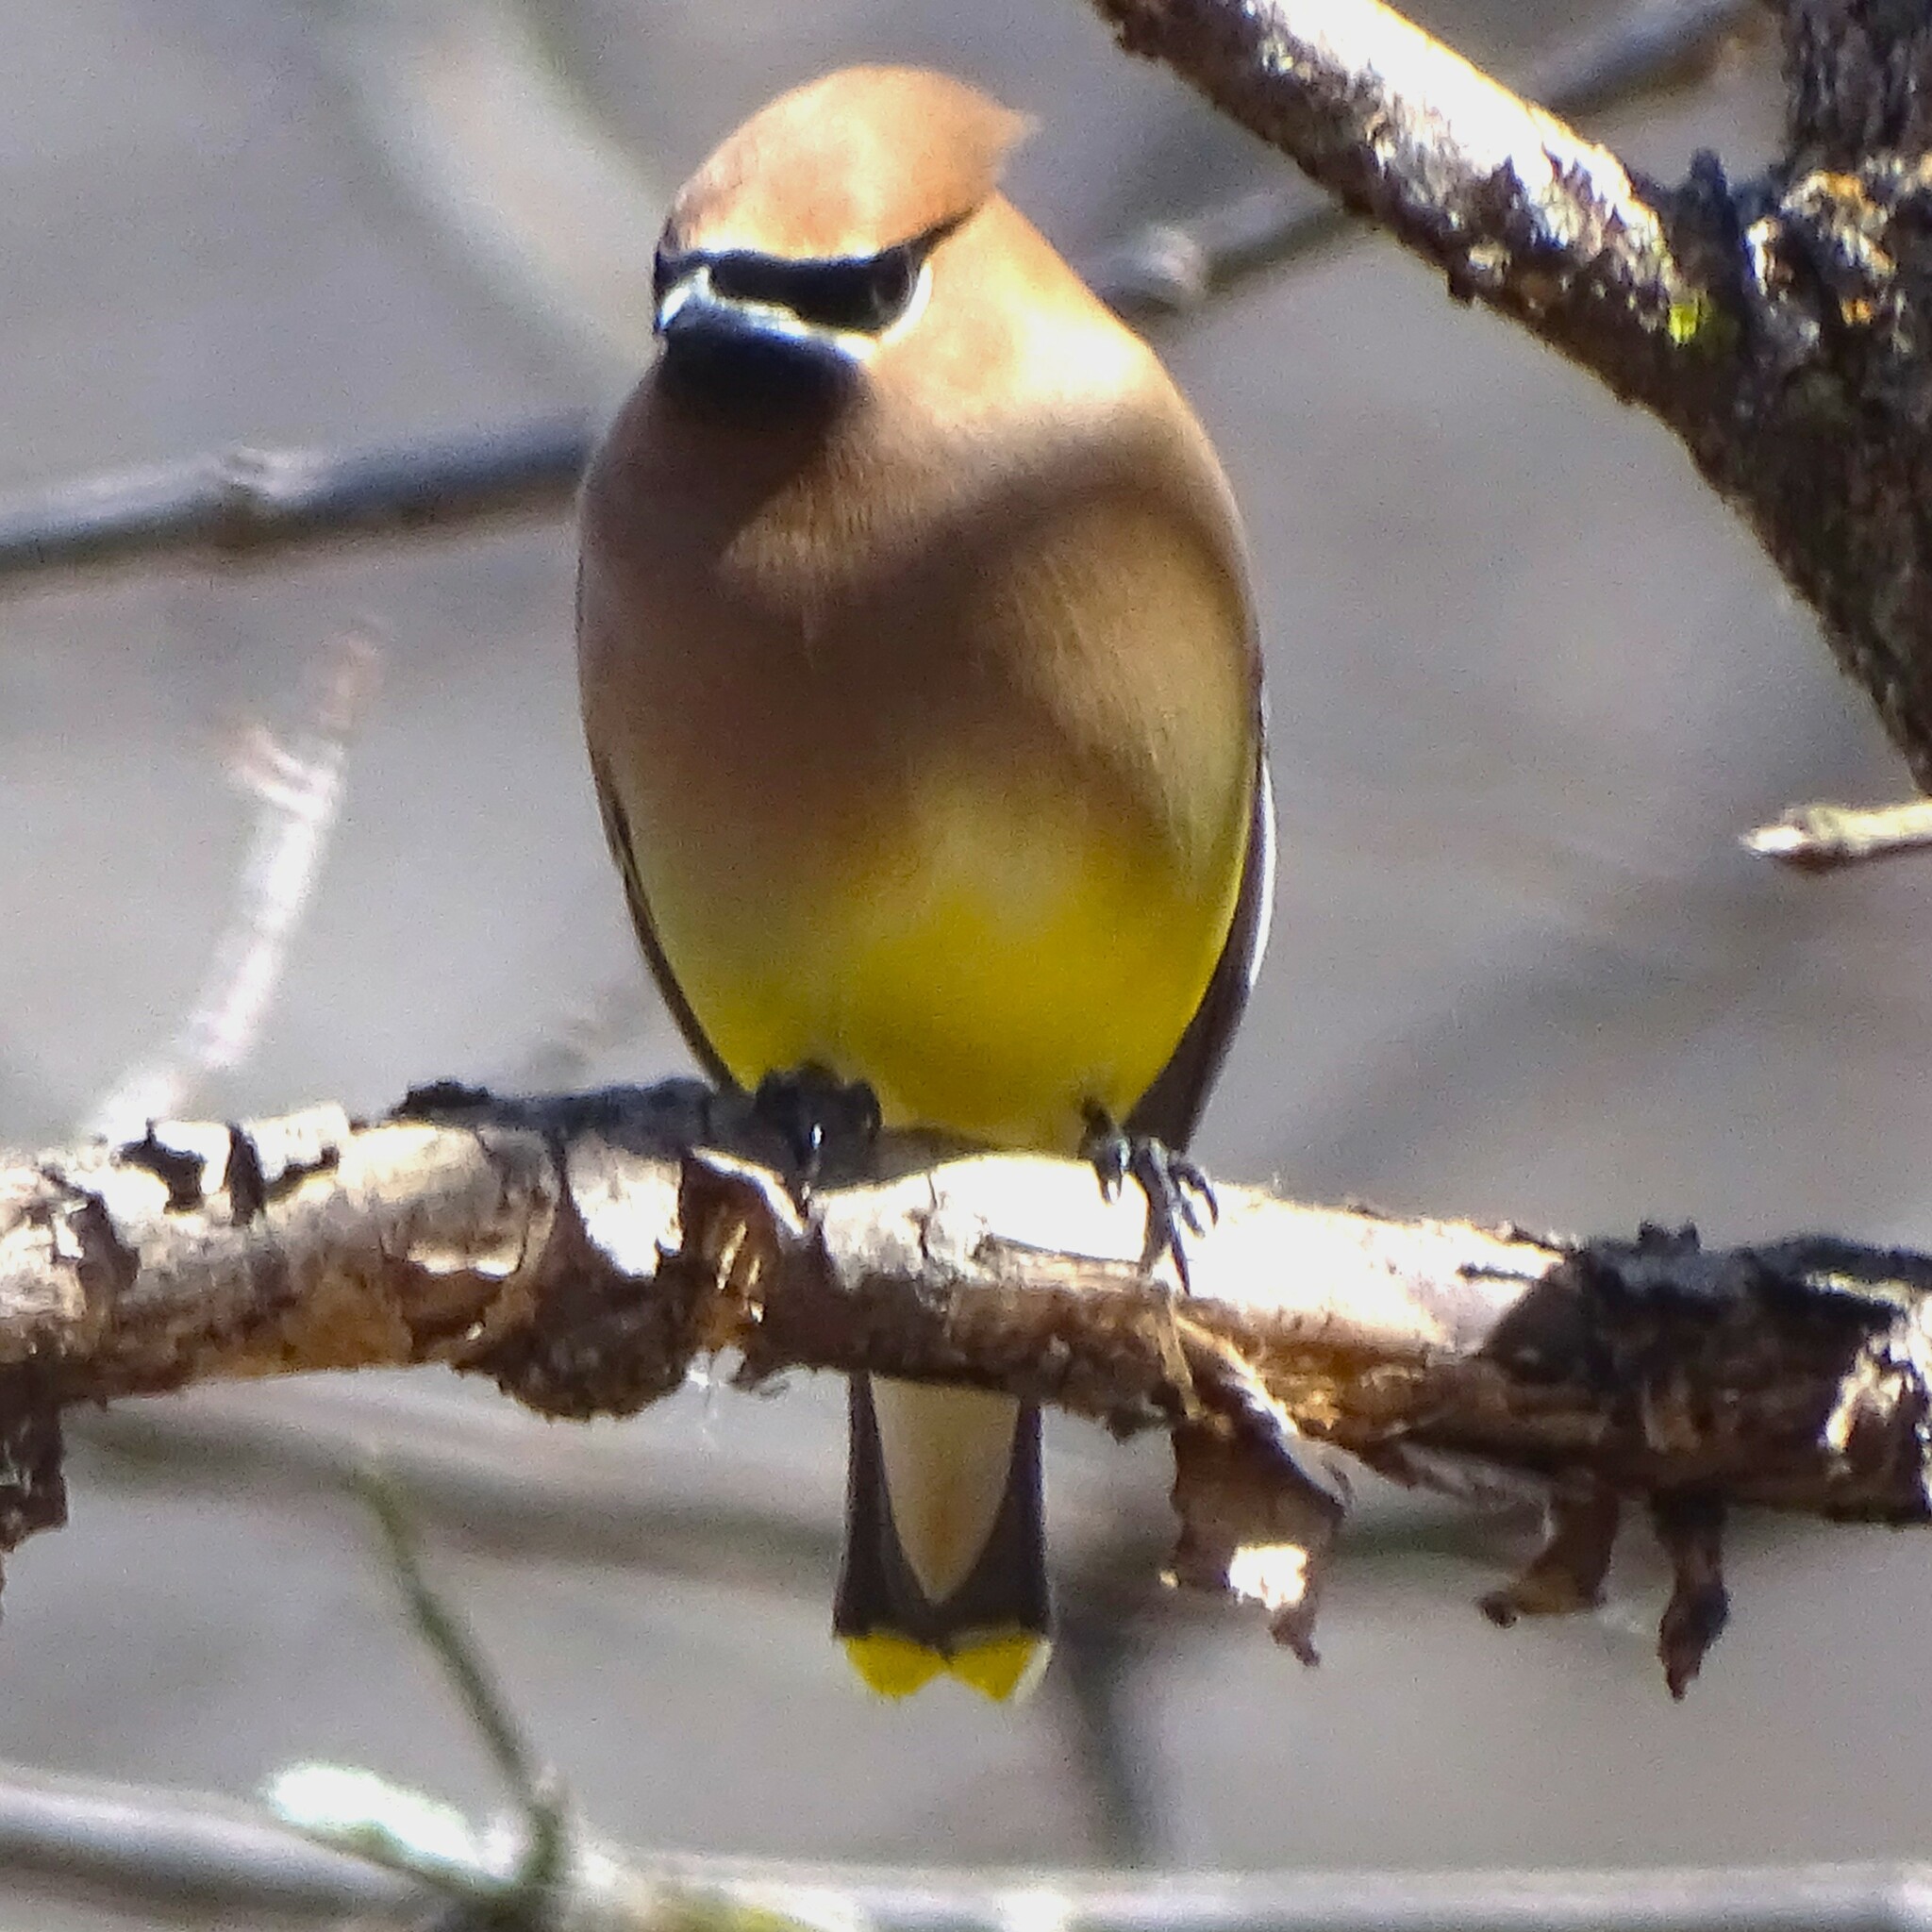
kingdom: Animalia
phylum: Chordata
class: Aves
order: Passeriformes
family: Bombycillidae
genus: Bombycilla
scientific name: Bombycilla cedrorum
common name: Cedar waxwing
